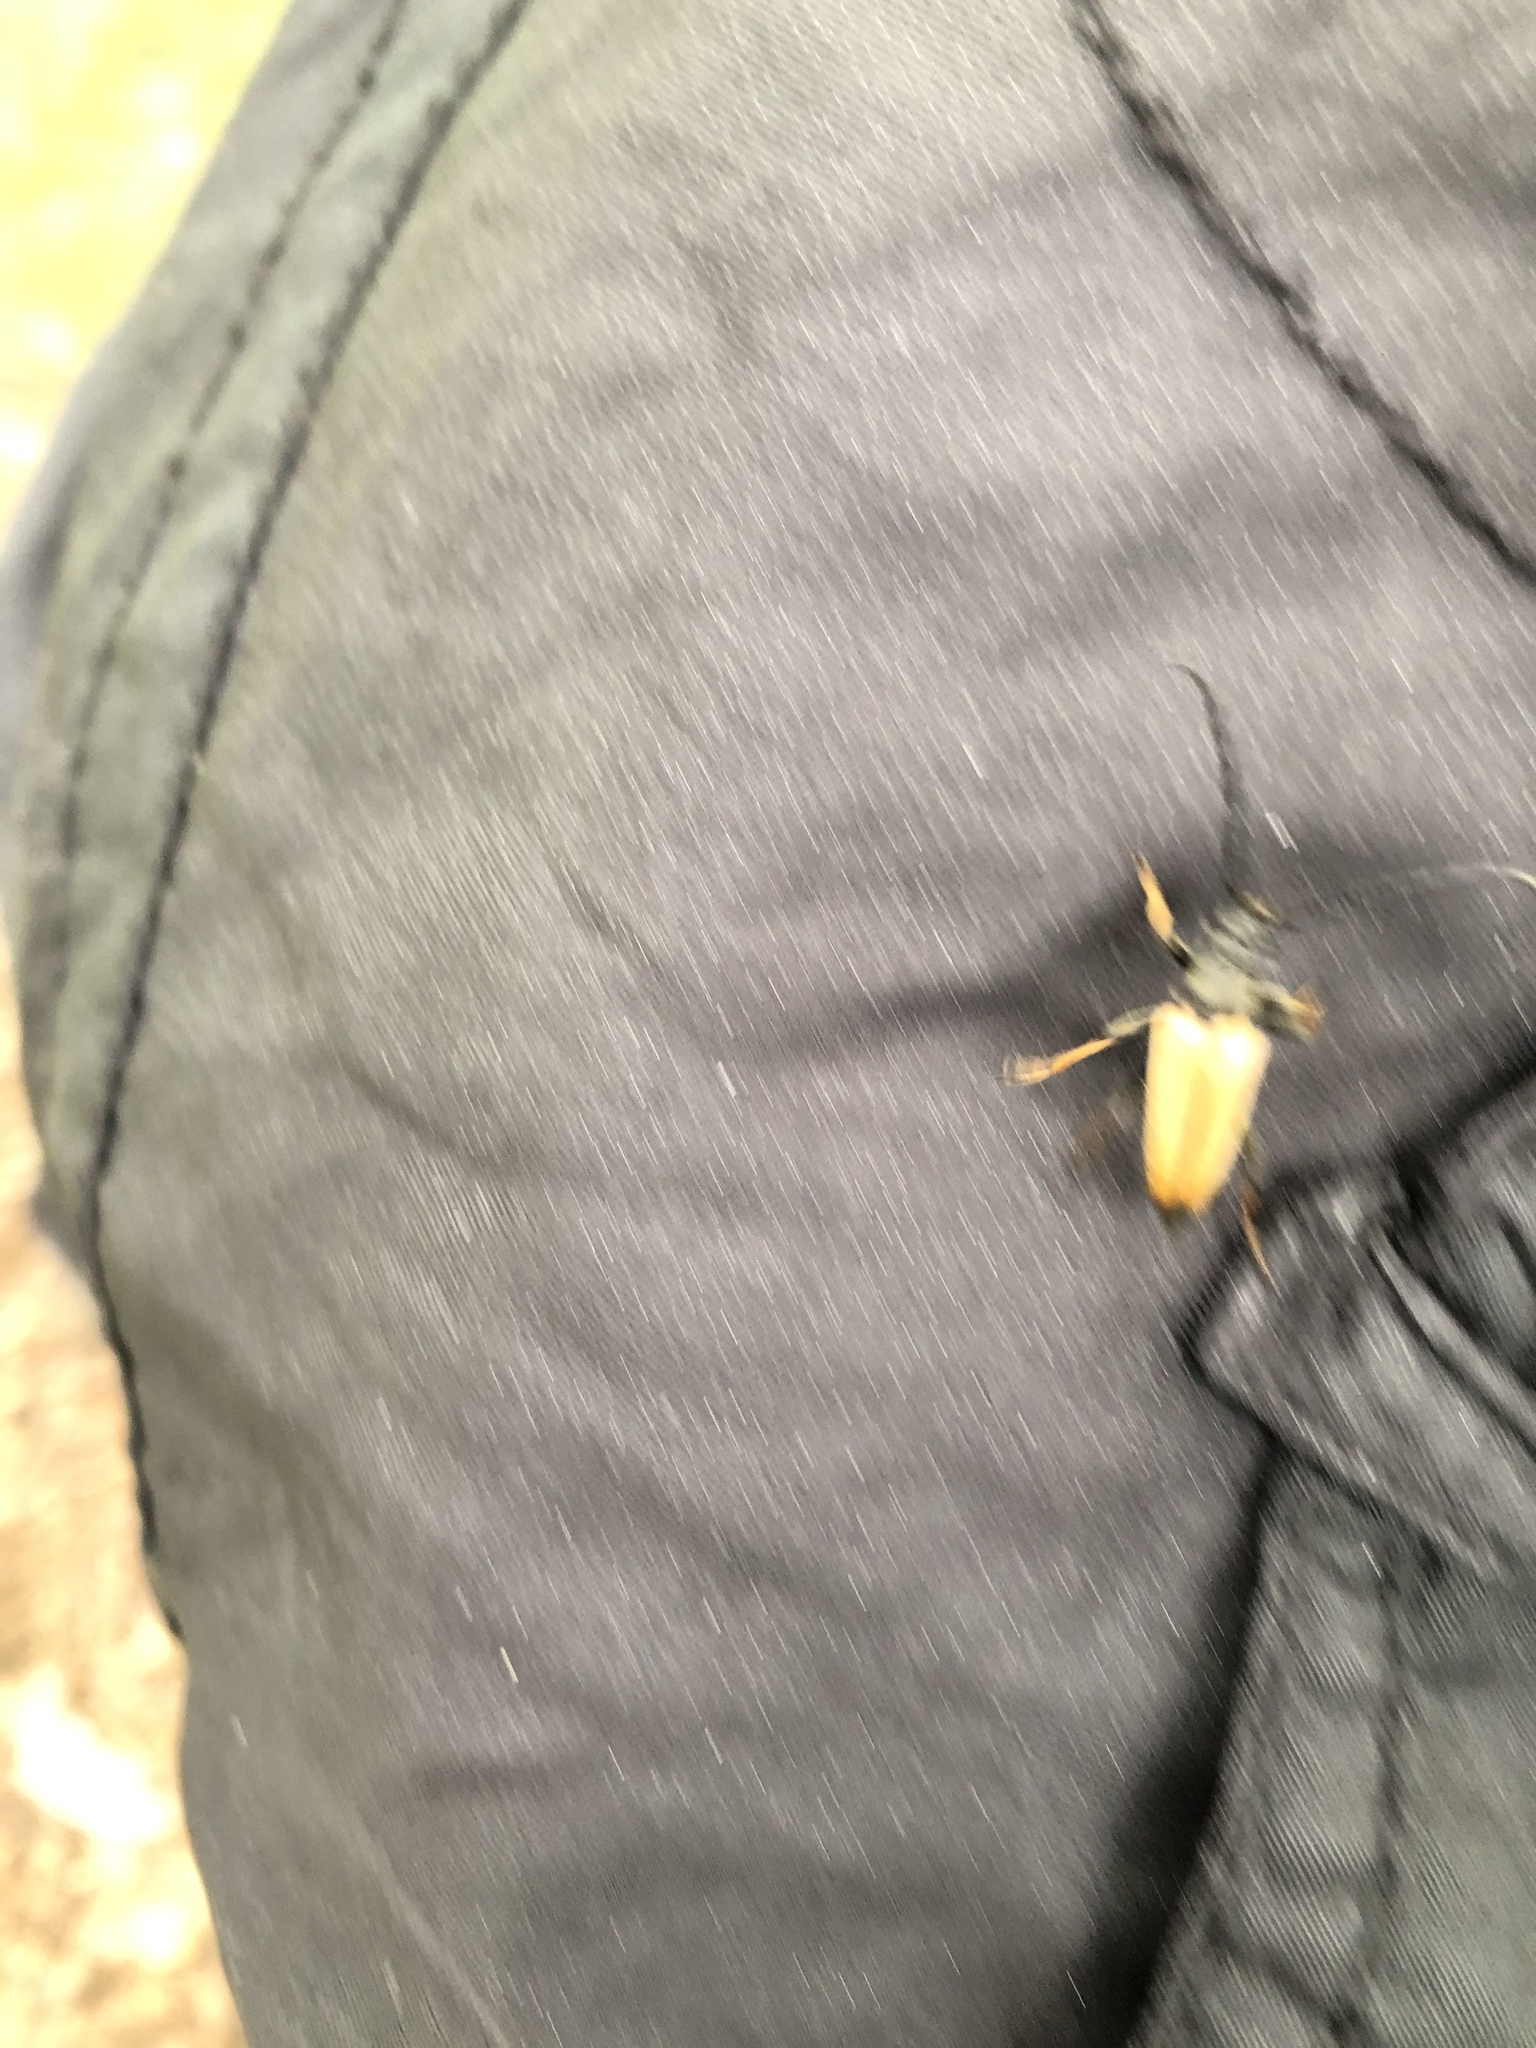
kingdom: Animalia
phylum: Arthropoda
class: Insecta
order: Coleoptera
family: Cerambycidae
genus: Stictoleptura
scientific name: Stictoleptura rubra
